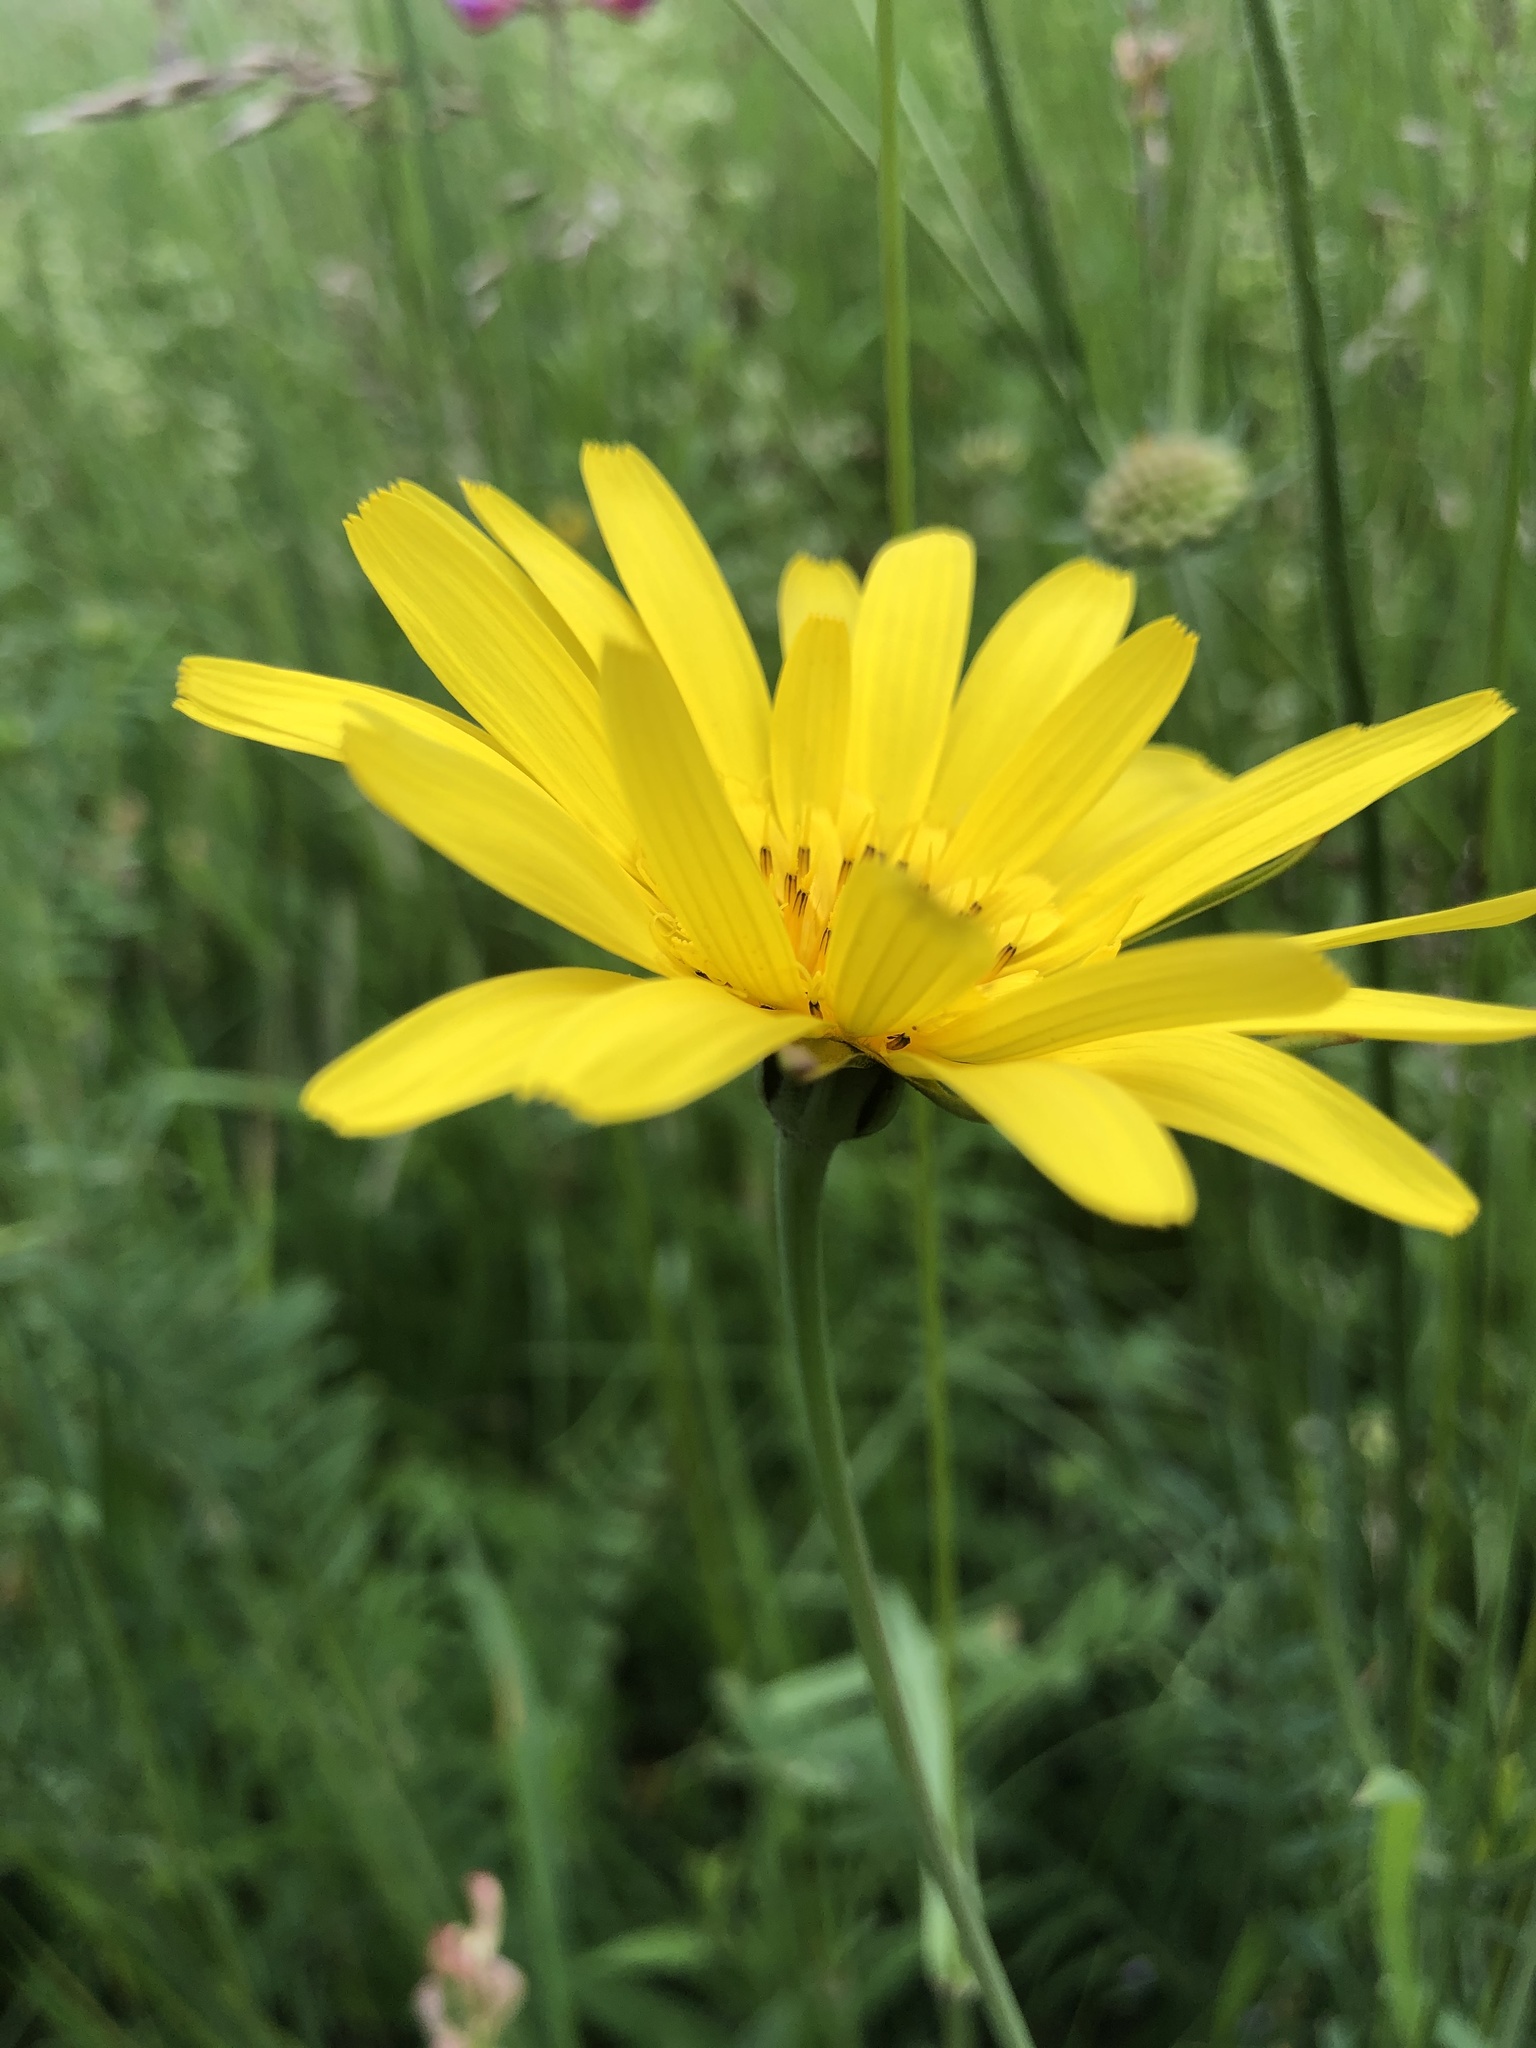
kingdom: Plantae
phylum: Tracheophyta
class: Magnoliopsida
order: Asterales
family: Asteraceae
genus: Tragopogon
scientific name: Tragopogon pratensis
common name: Goat's-beard
